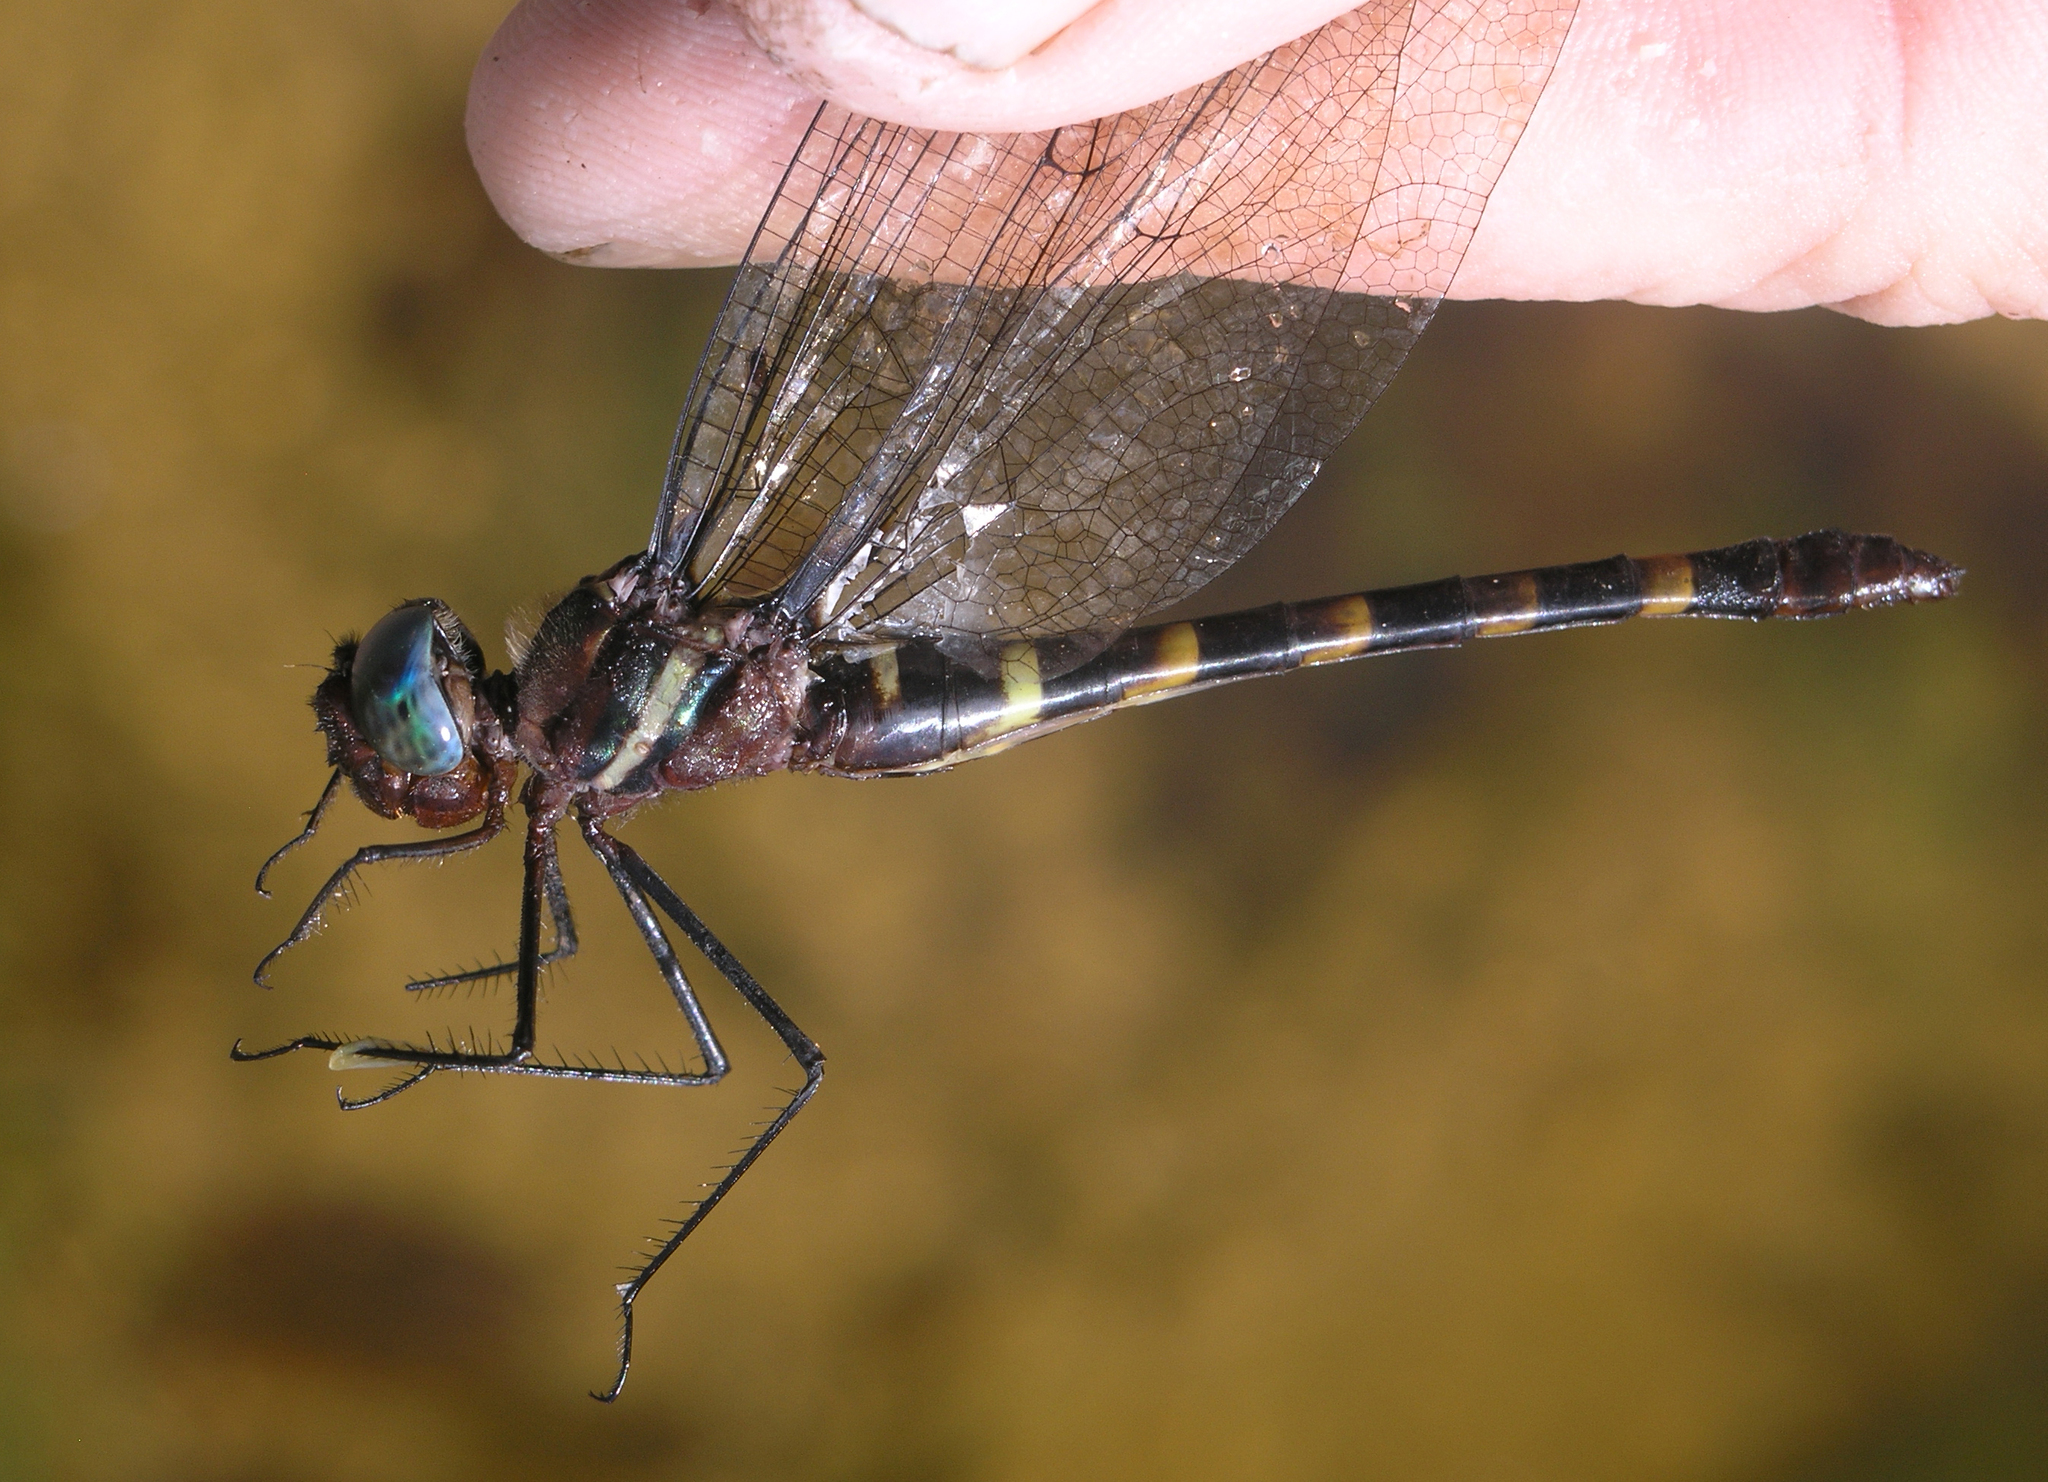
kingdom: Animalia
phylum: Arthropoda
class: Insecta
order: Odonata
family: Macromiidae
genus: Macromia
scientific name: Macromia cincta
